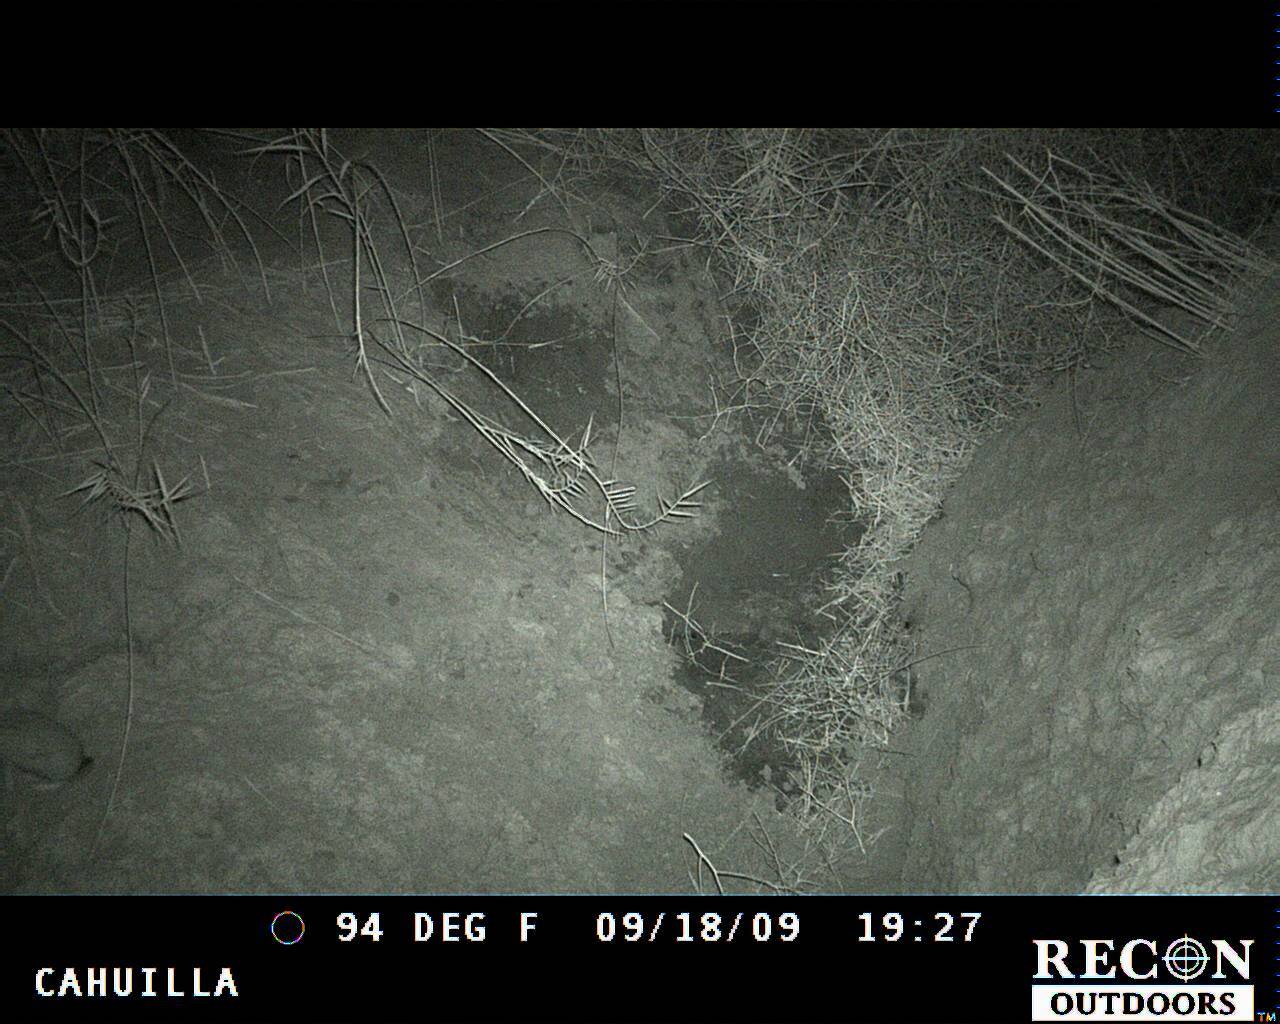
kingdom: Animalia
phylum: Chordata
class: Mammalia
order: Lagomorpha
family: Leporidae
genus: Lepus
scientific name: Lepus californicus
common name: Black-tailed jackrabbit
